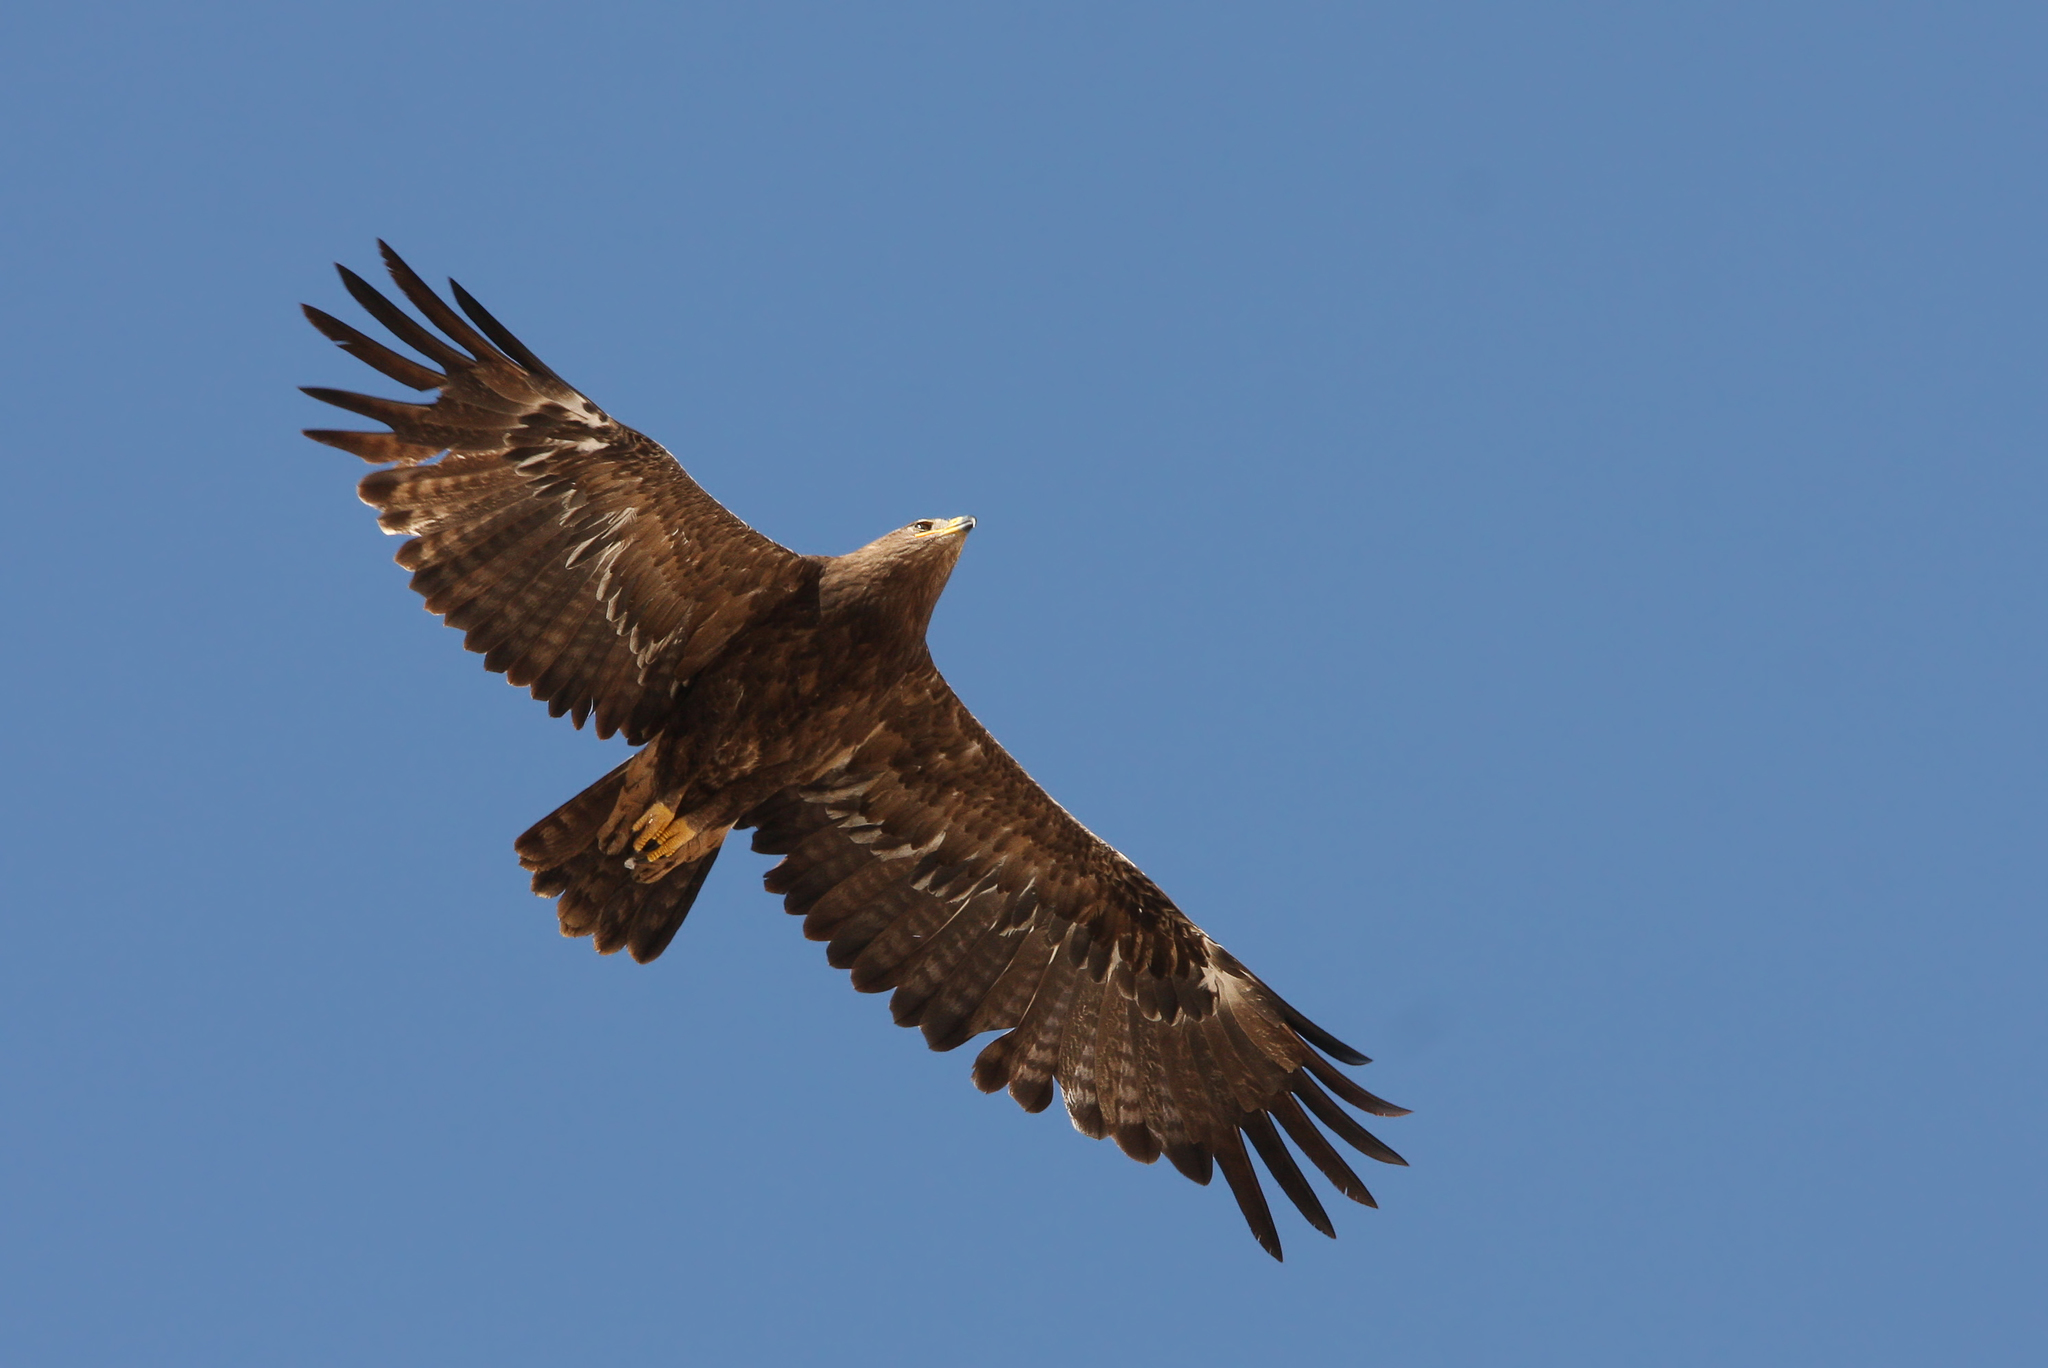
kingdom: Animalia
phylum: Chordata
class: Aves
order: Accipitriformes
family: Accipitridae
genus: Aquila
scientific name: Aquila nipalensis
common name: Steppe eagle
